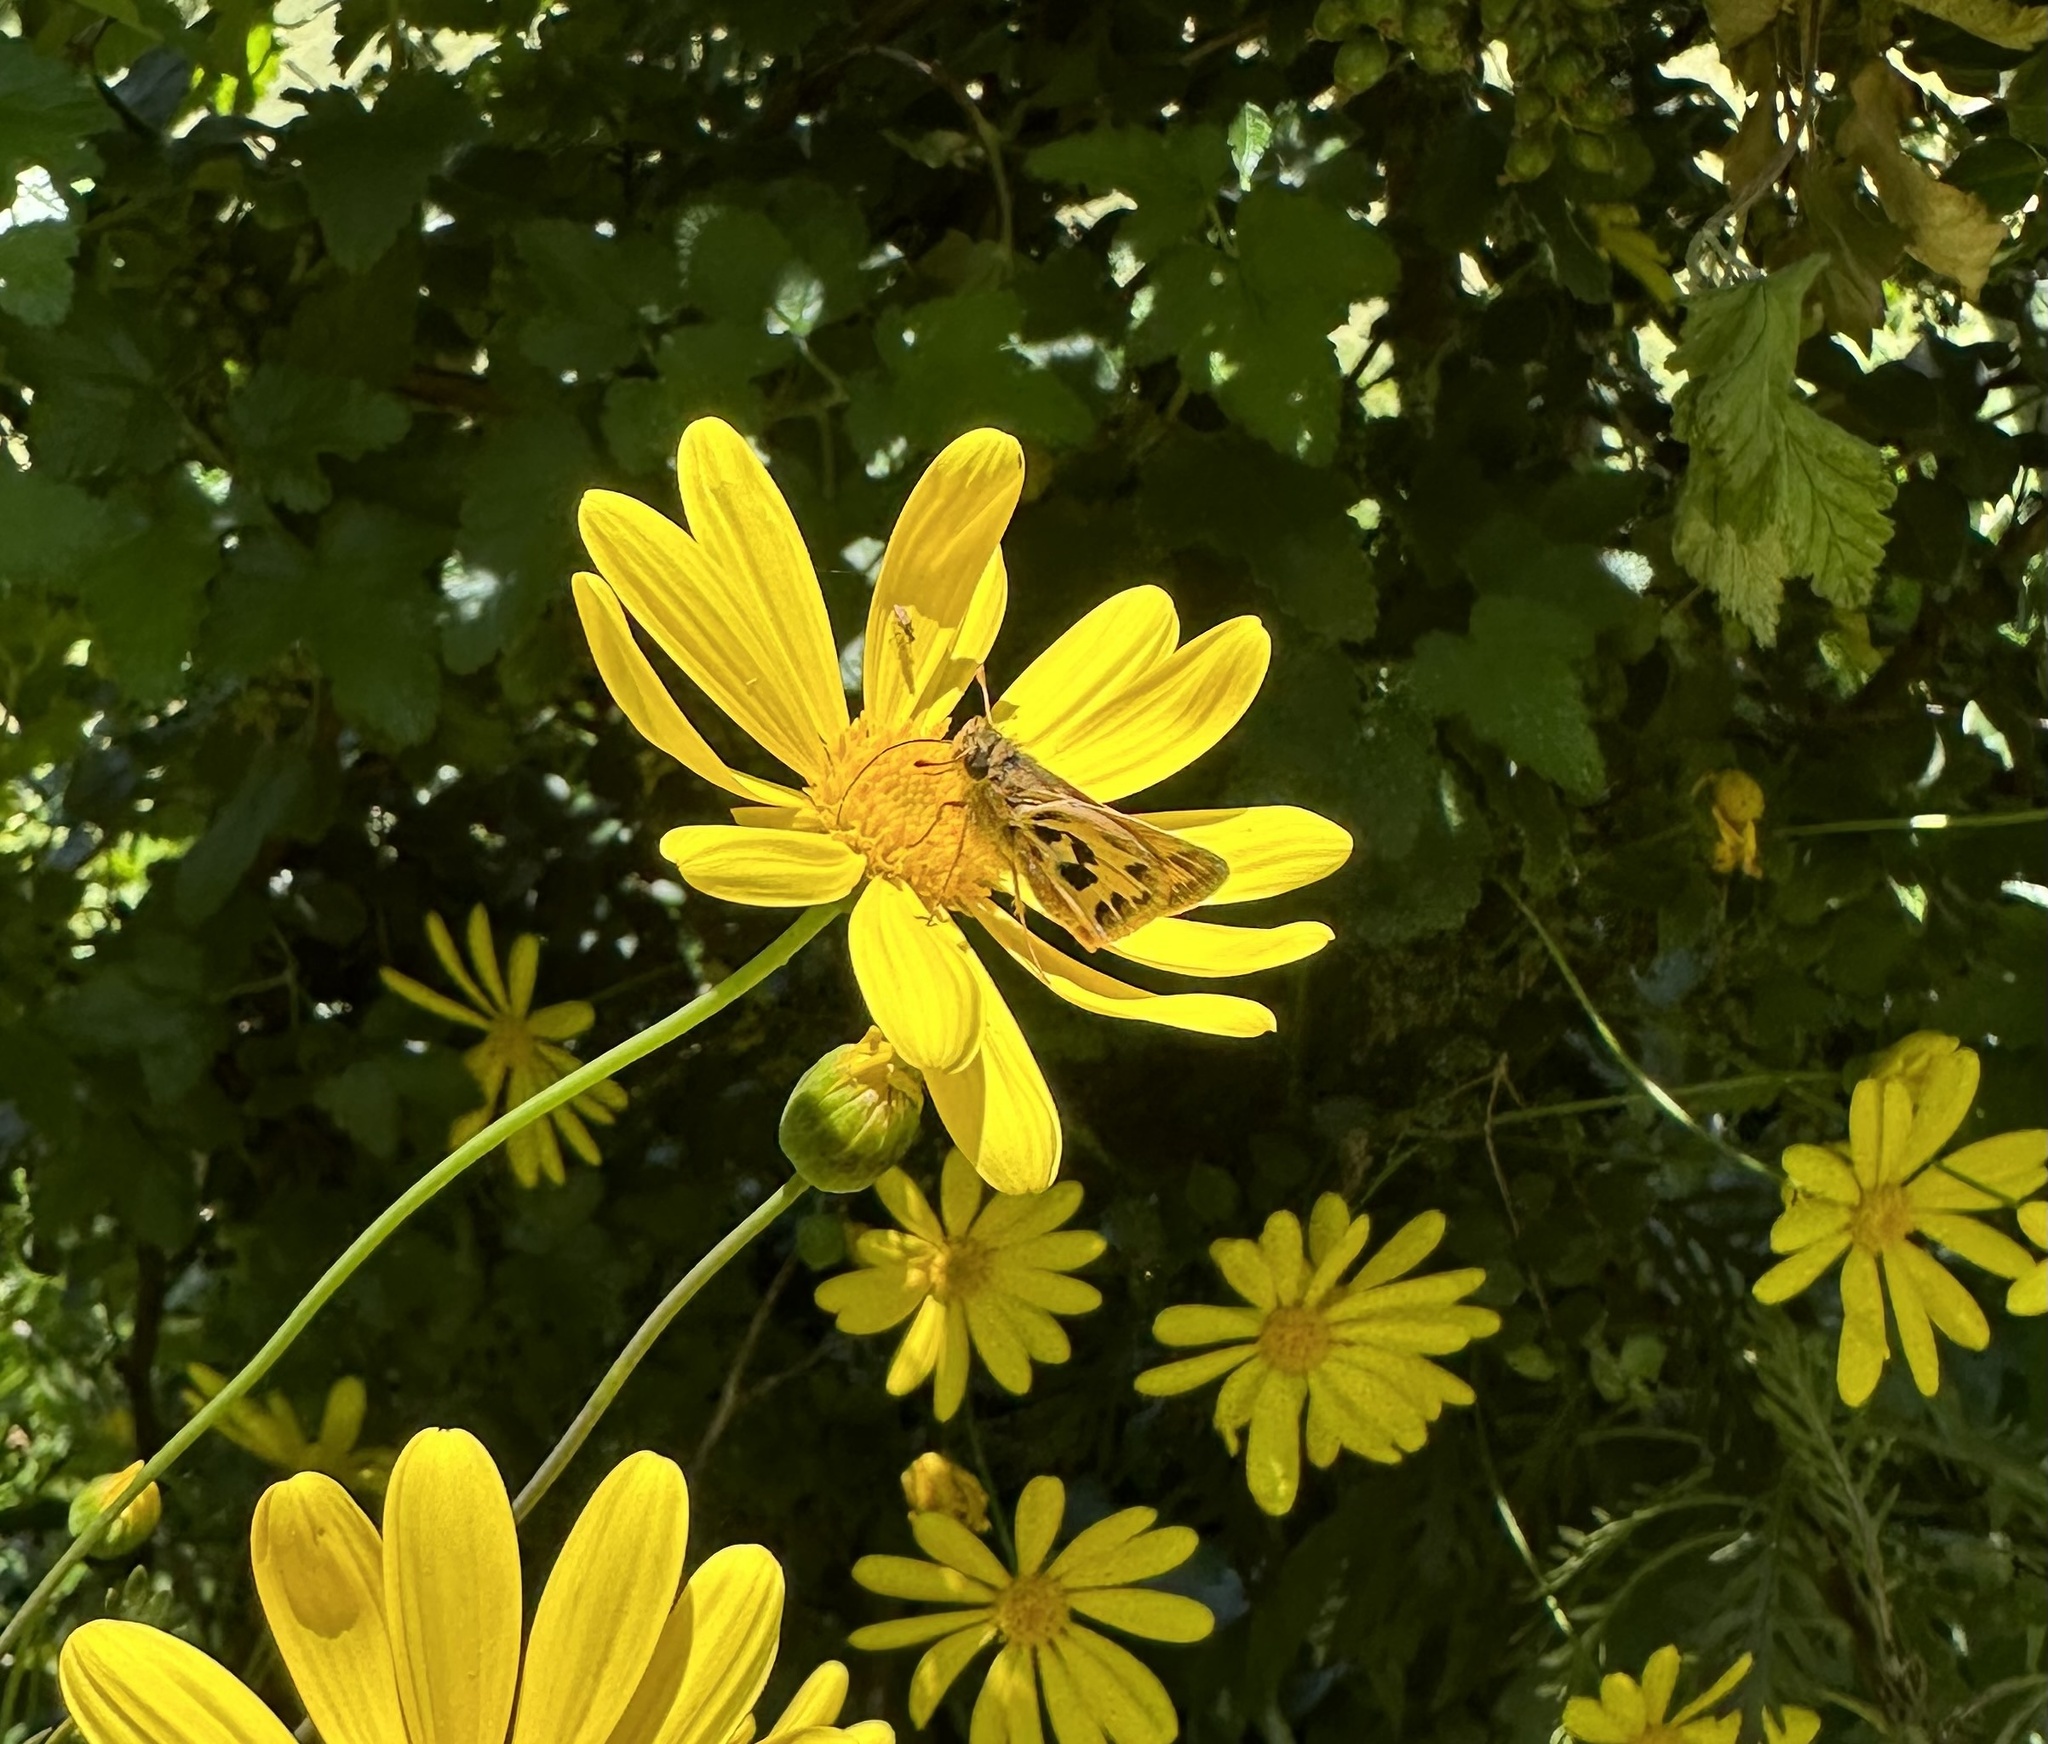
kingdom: Animalia
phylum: Arthropoda
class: Insecta
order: Lepidoptera
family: Hesperiidae
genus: Hylephila
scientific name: Hylephila fasciolata
